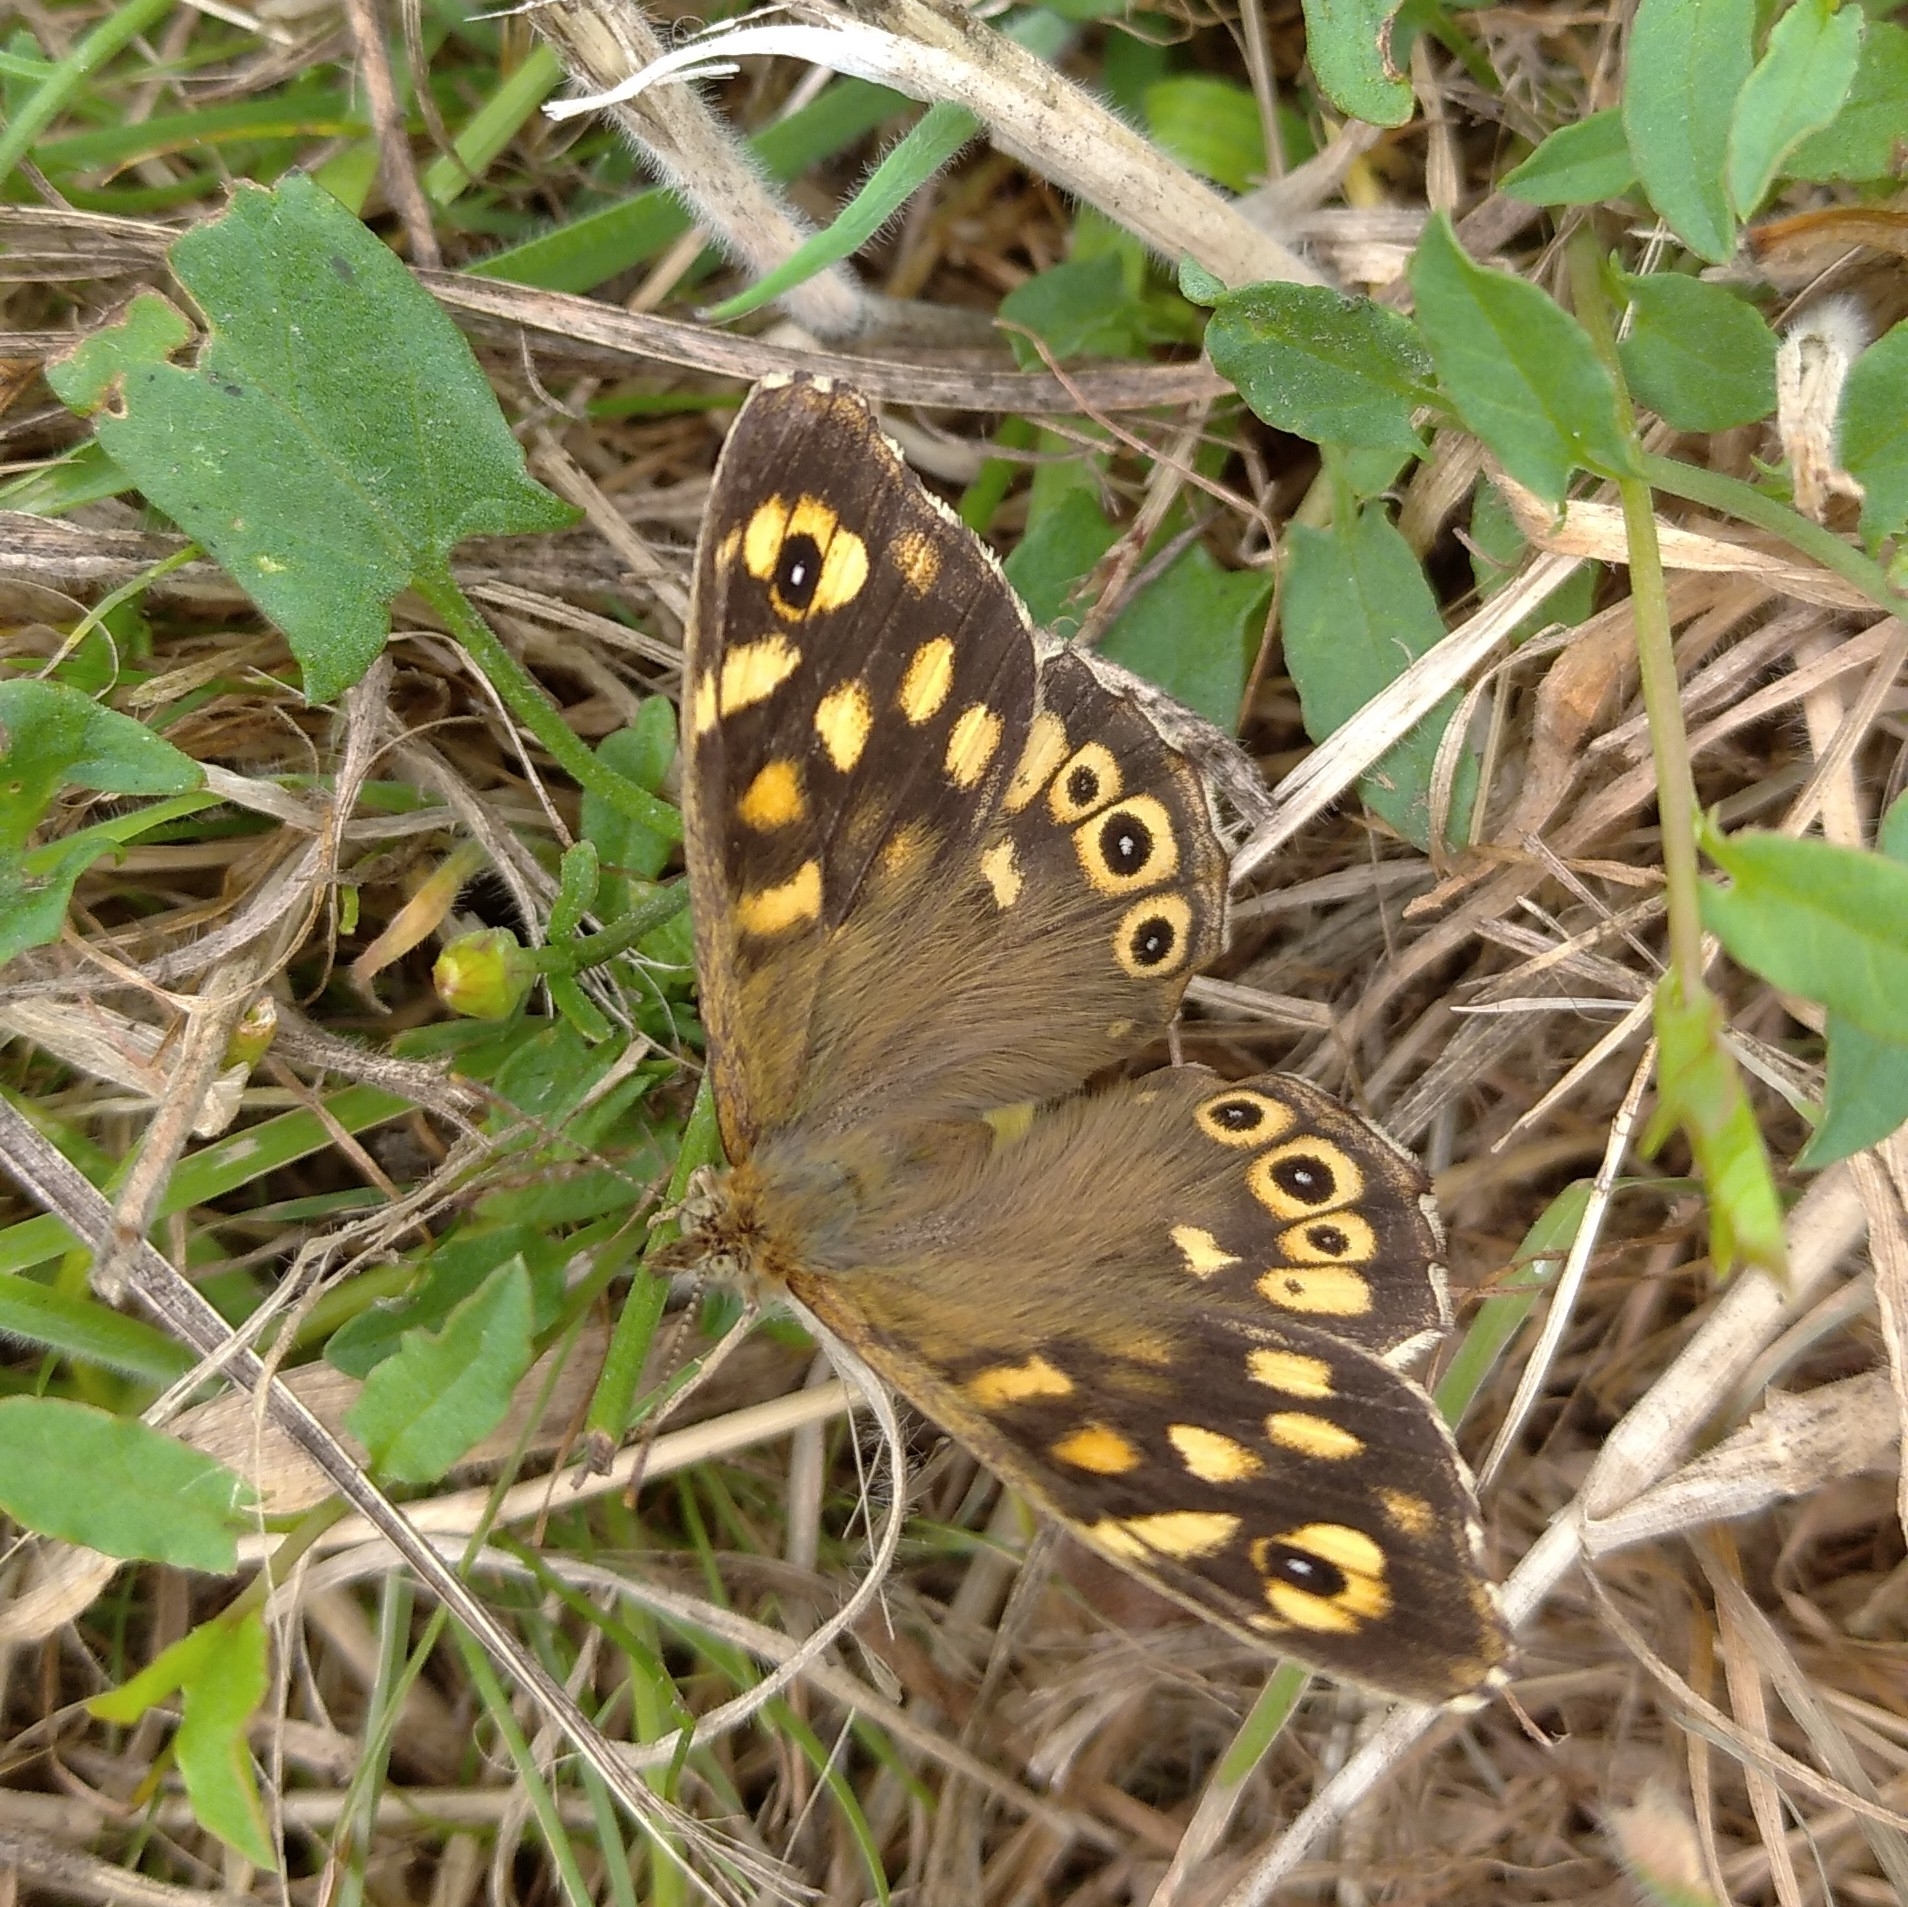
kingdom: Animalia
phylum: Arthropoda
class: Insecta
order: Lepidoptera
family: Nymphalidae
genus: Pararge
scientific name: Pararge aegeria
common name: Speckled wood
